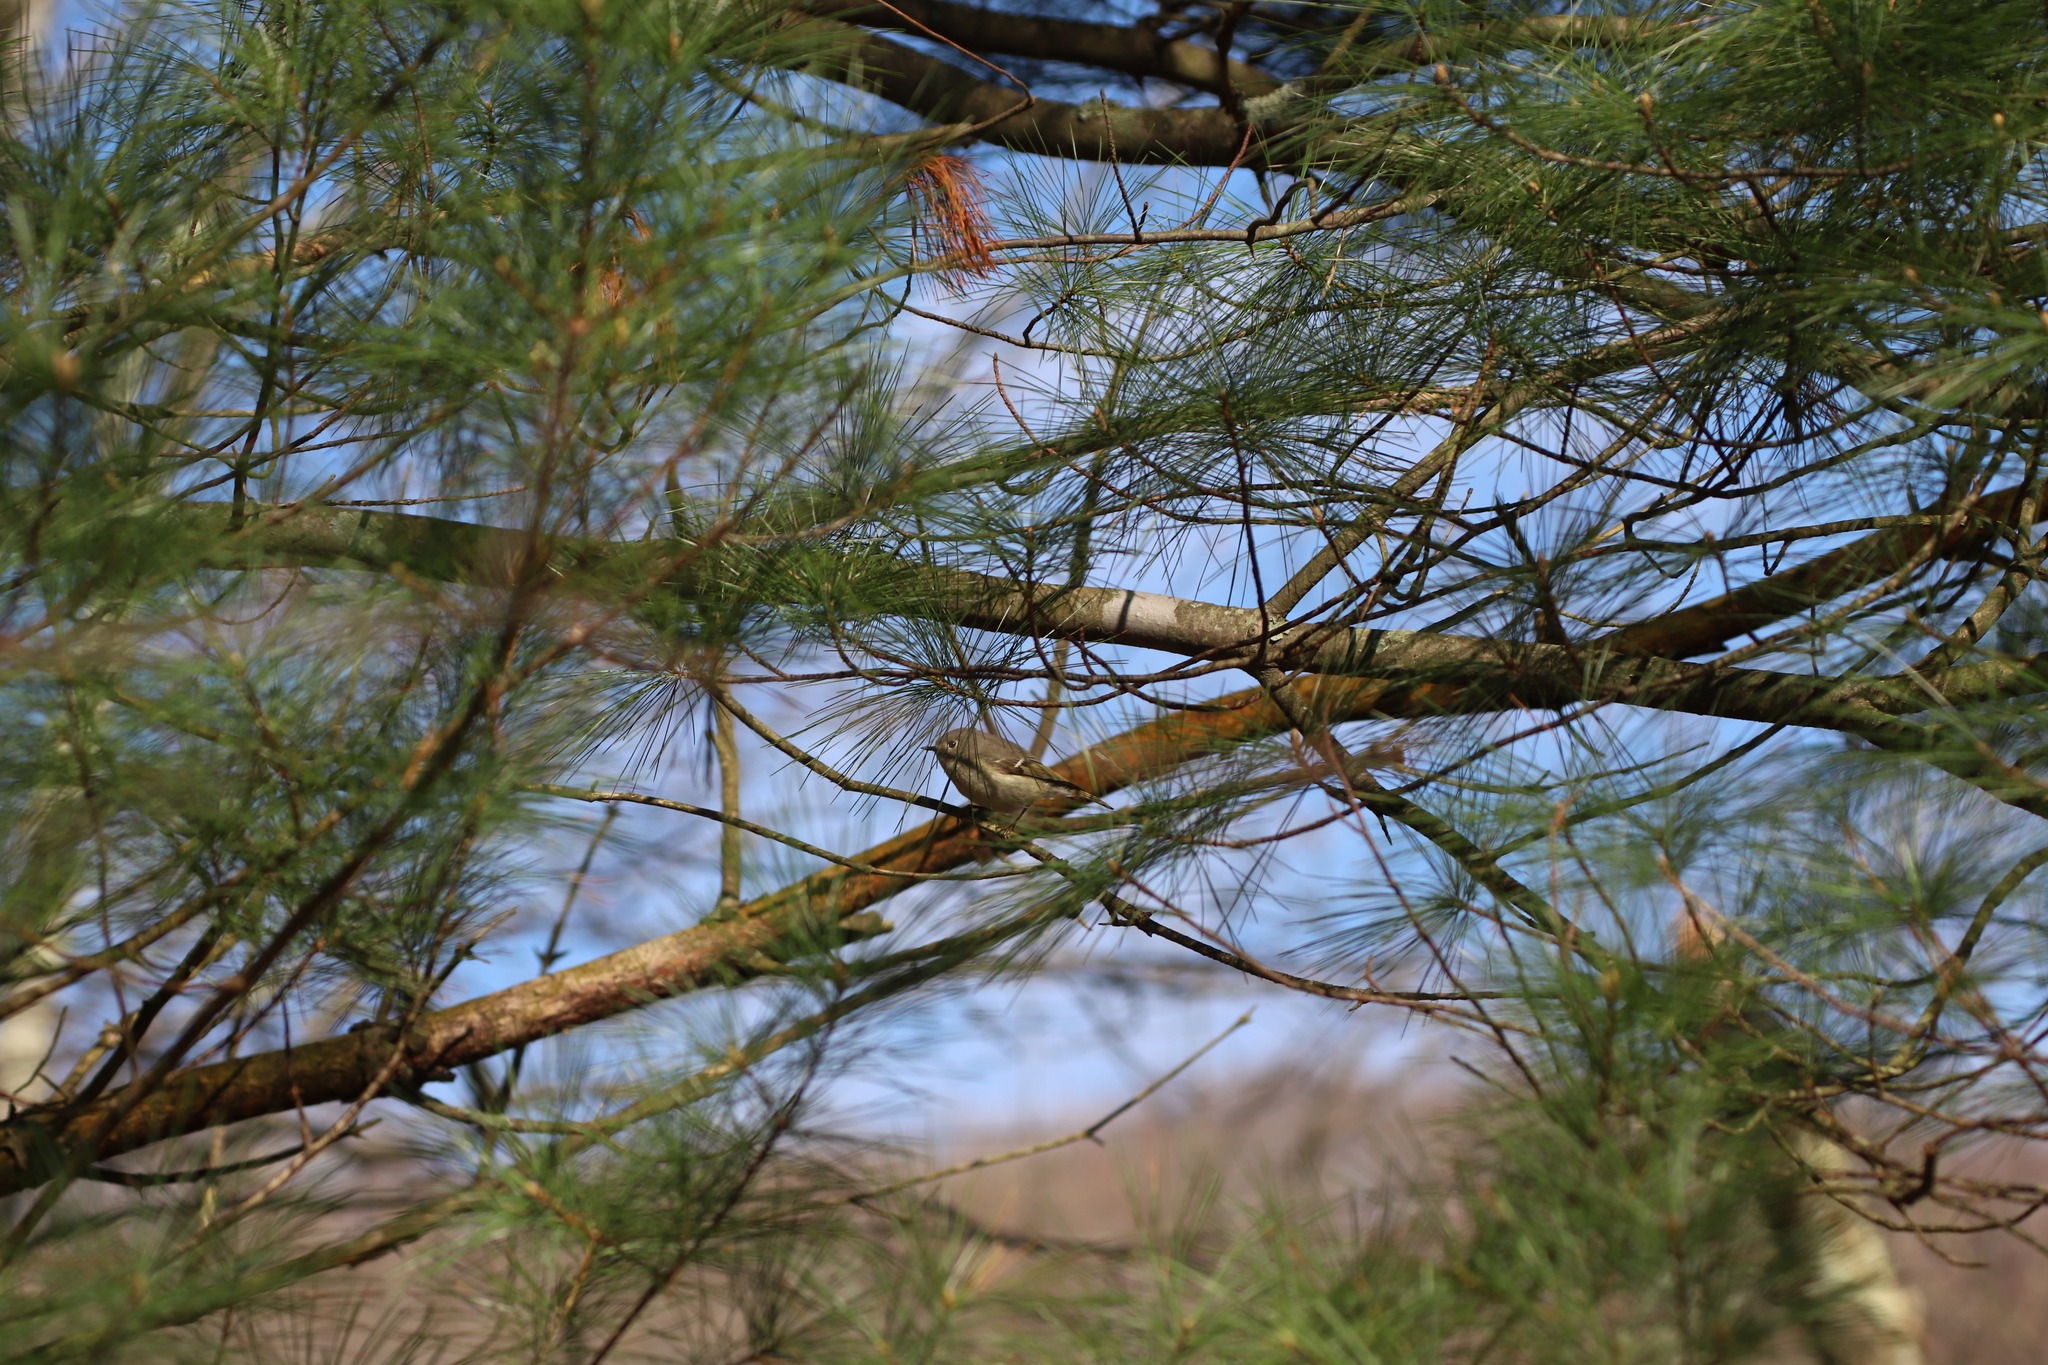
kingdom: Animalia
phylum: Chordata
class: Aves
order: Passeriformes
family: Regulidae
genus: Regulus
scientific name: Regulus calendula
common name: Ruby-crowned kinglet
